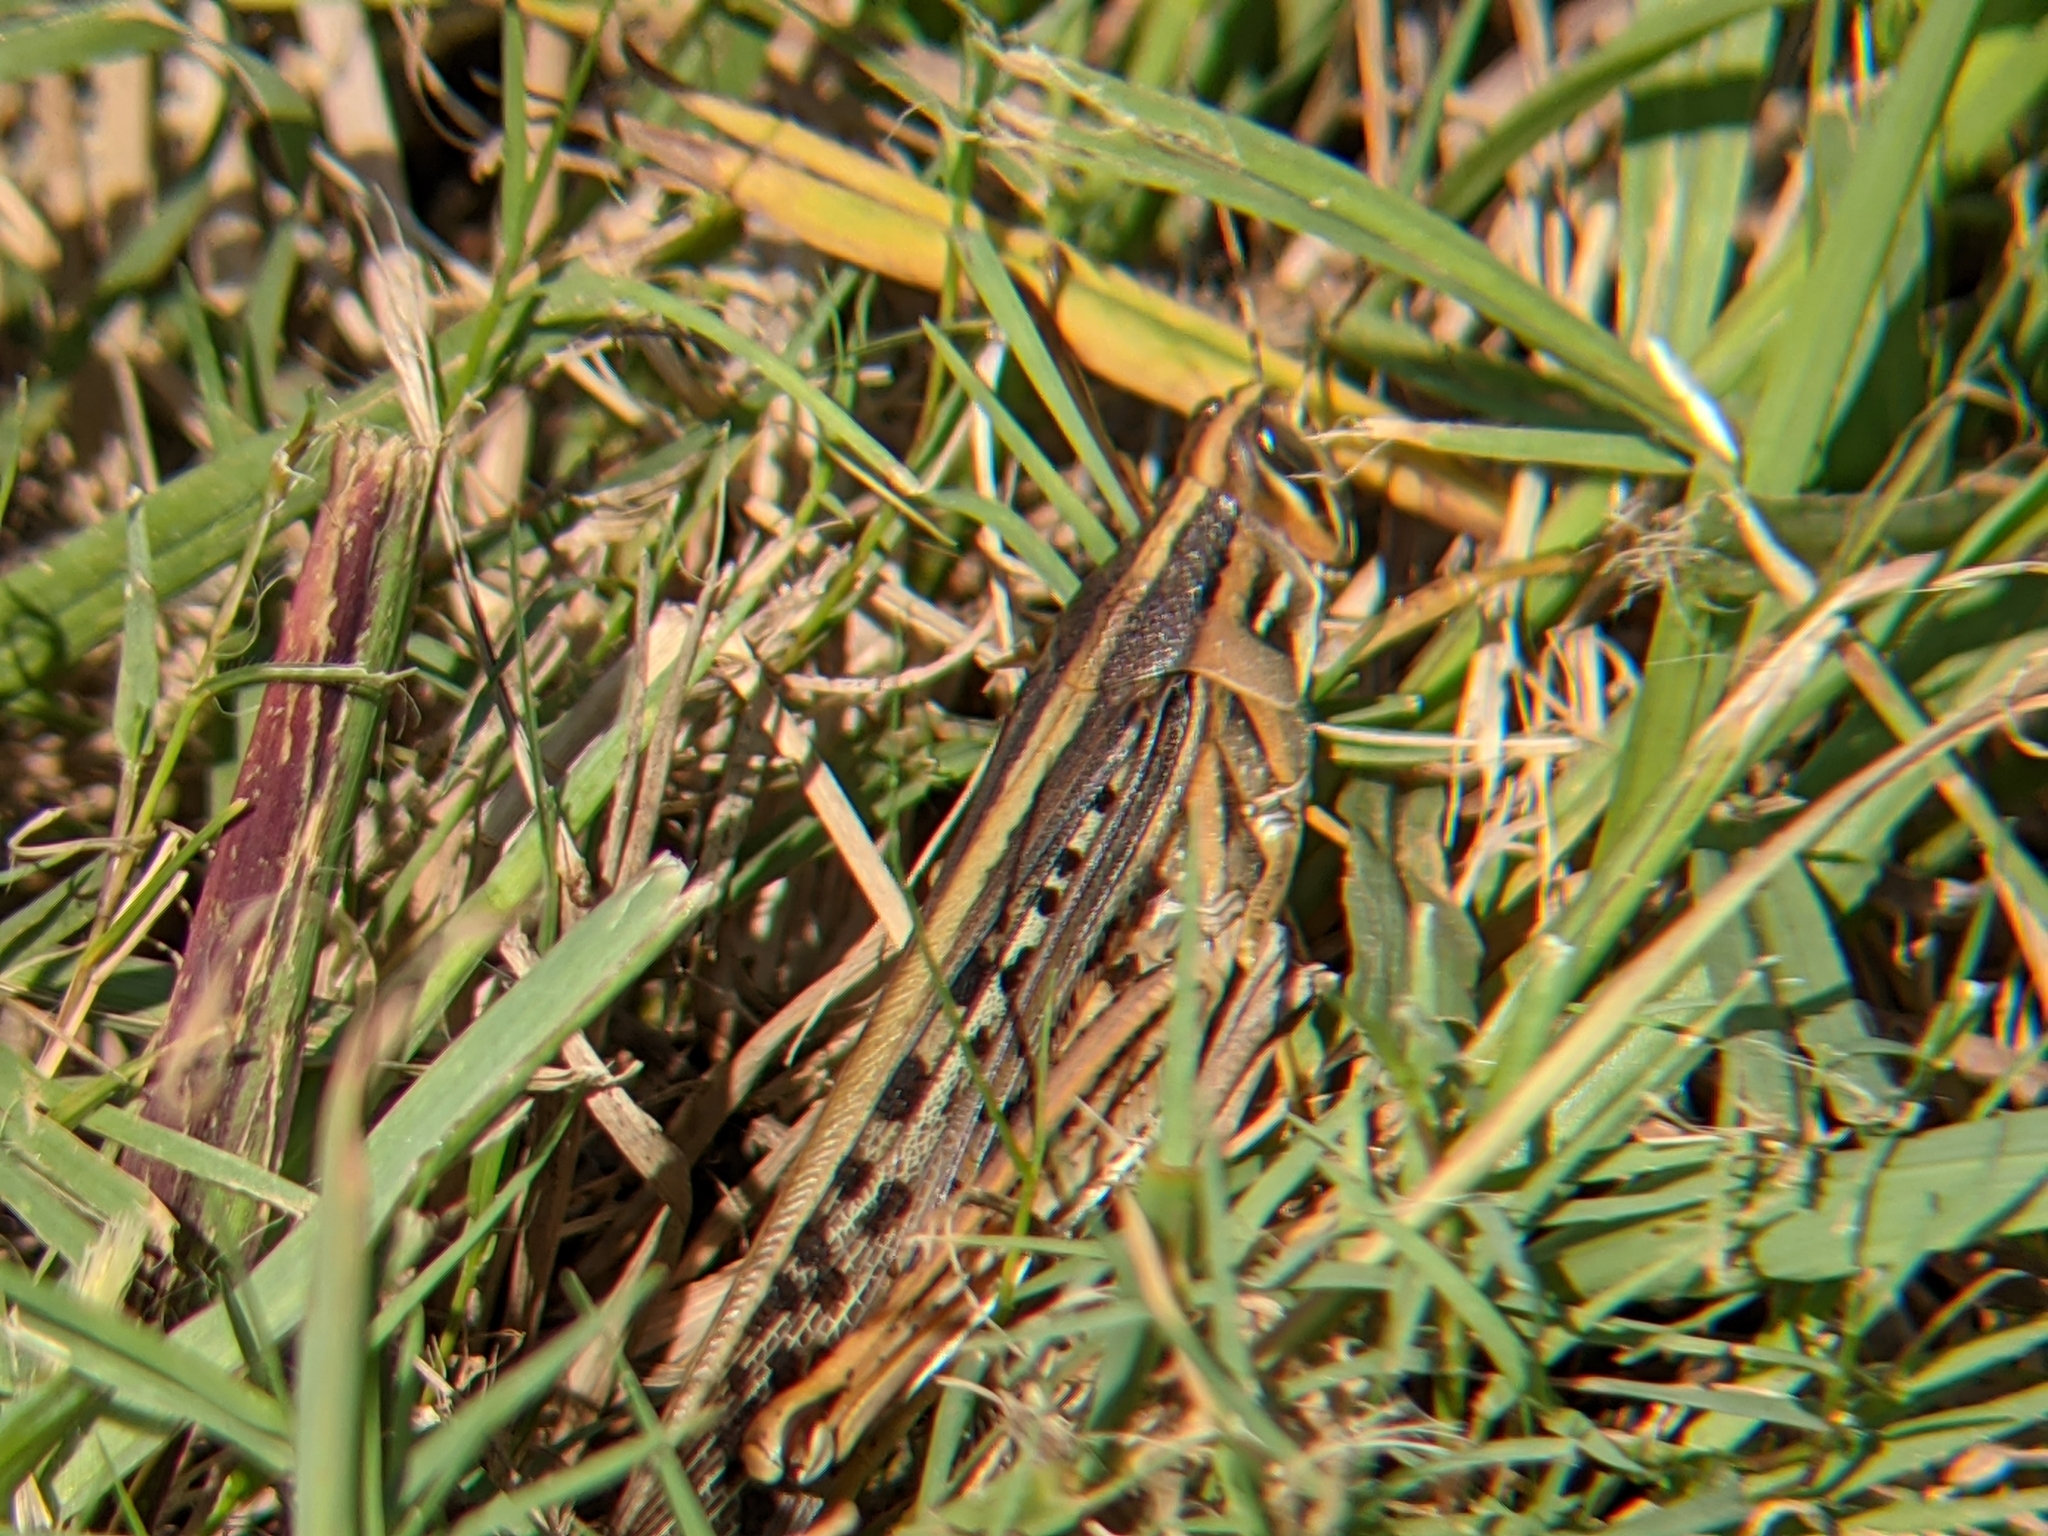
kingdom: Animalia
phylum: Arthropoda
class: Insecta
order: Orthoptera
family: Acrididae
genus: Schistocerca
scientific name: Schistocerca americana
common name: American bird locust
